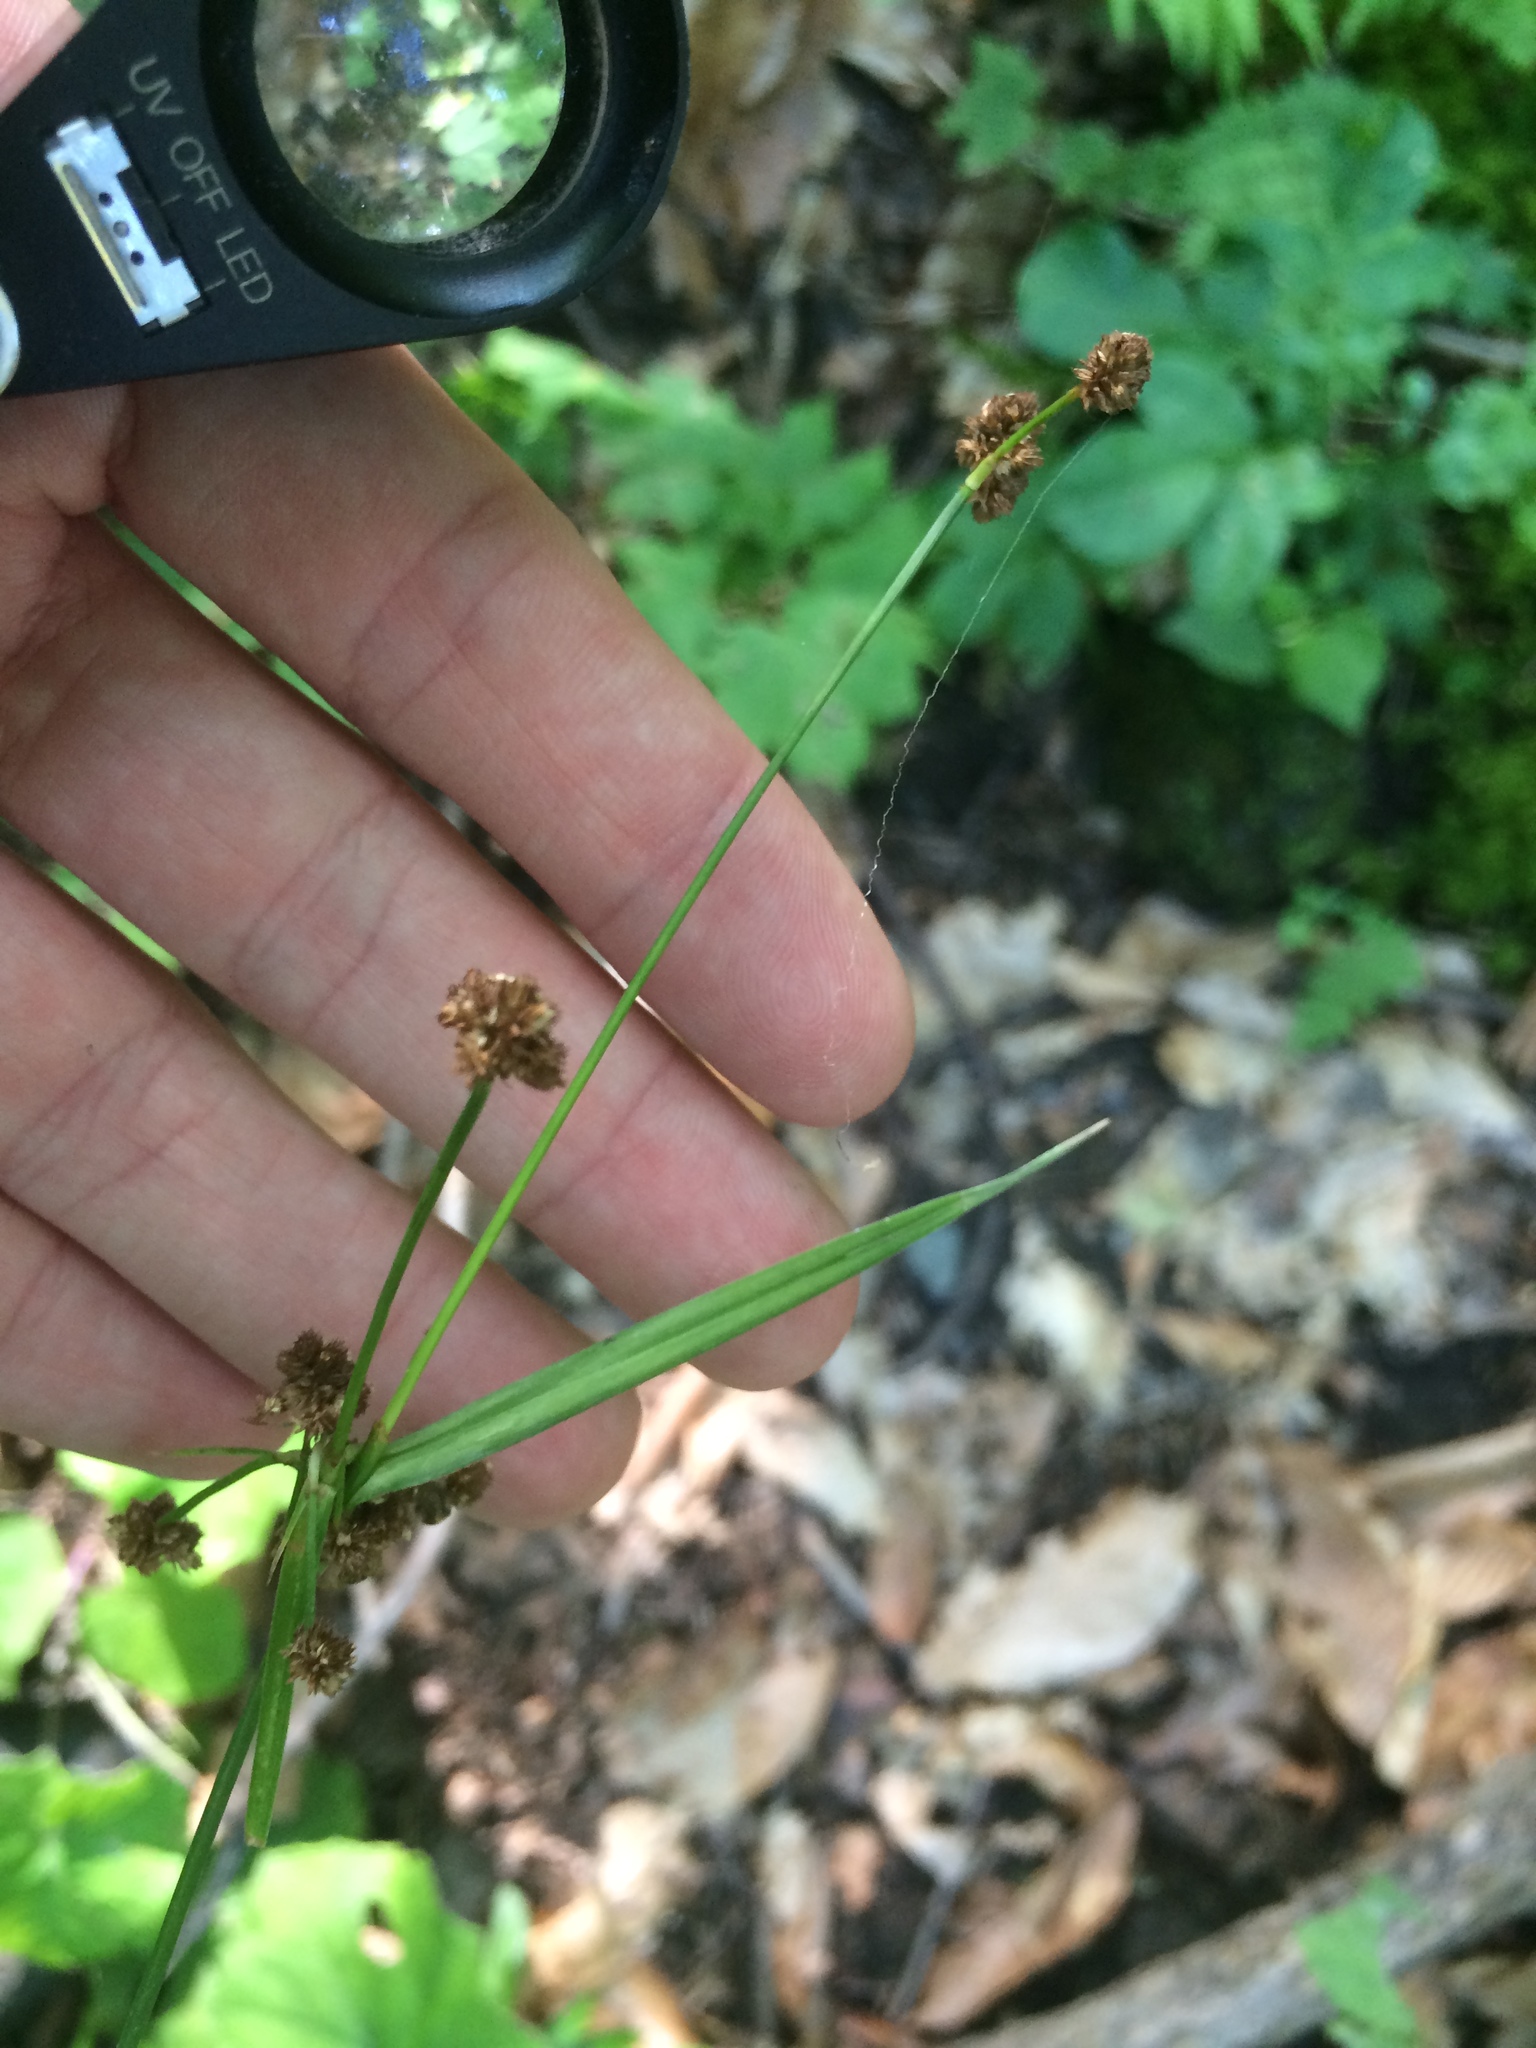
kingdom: Plantae
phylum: Tracheophyta
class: Liliopsida
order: Poales
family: Cyperaceae
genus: Scirpus
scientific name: Scirpus hattorianus
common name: Early dark-green bulrush
